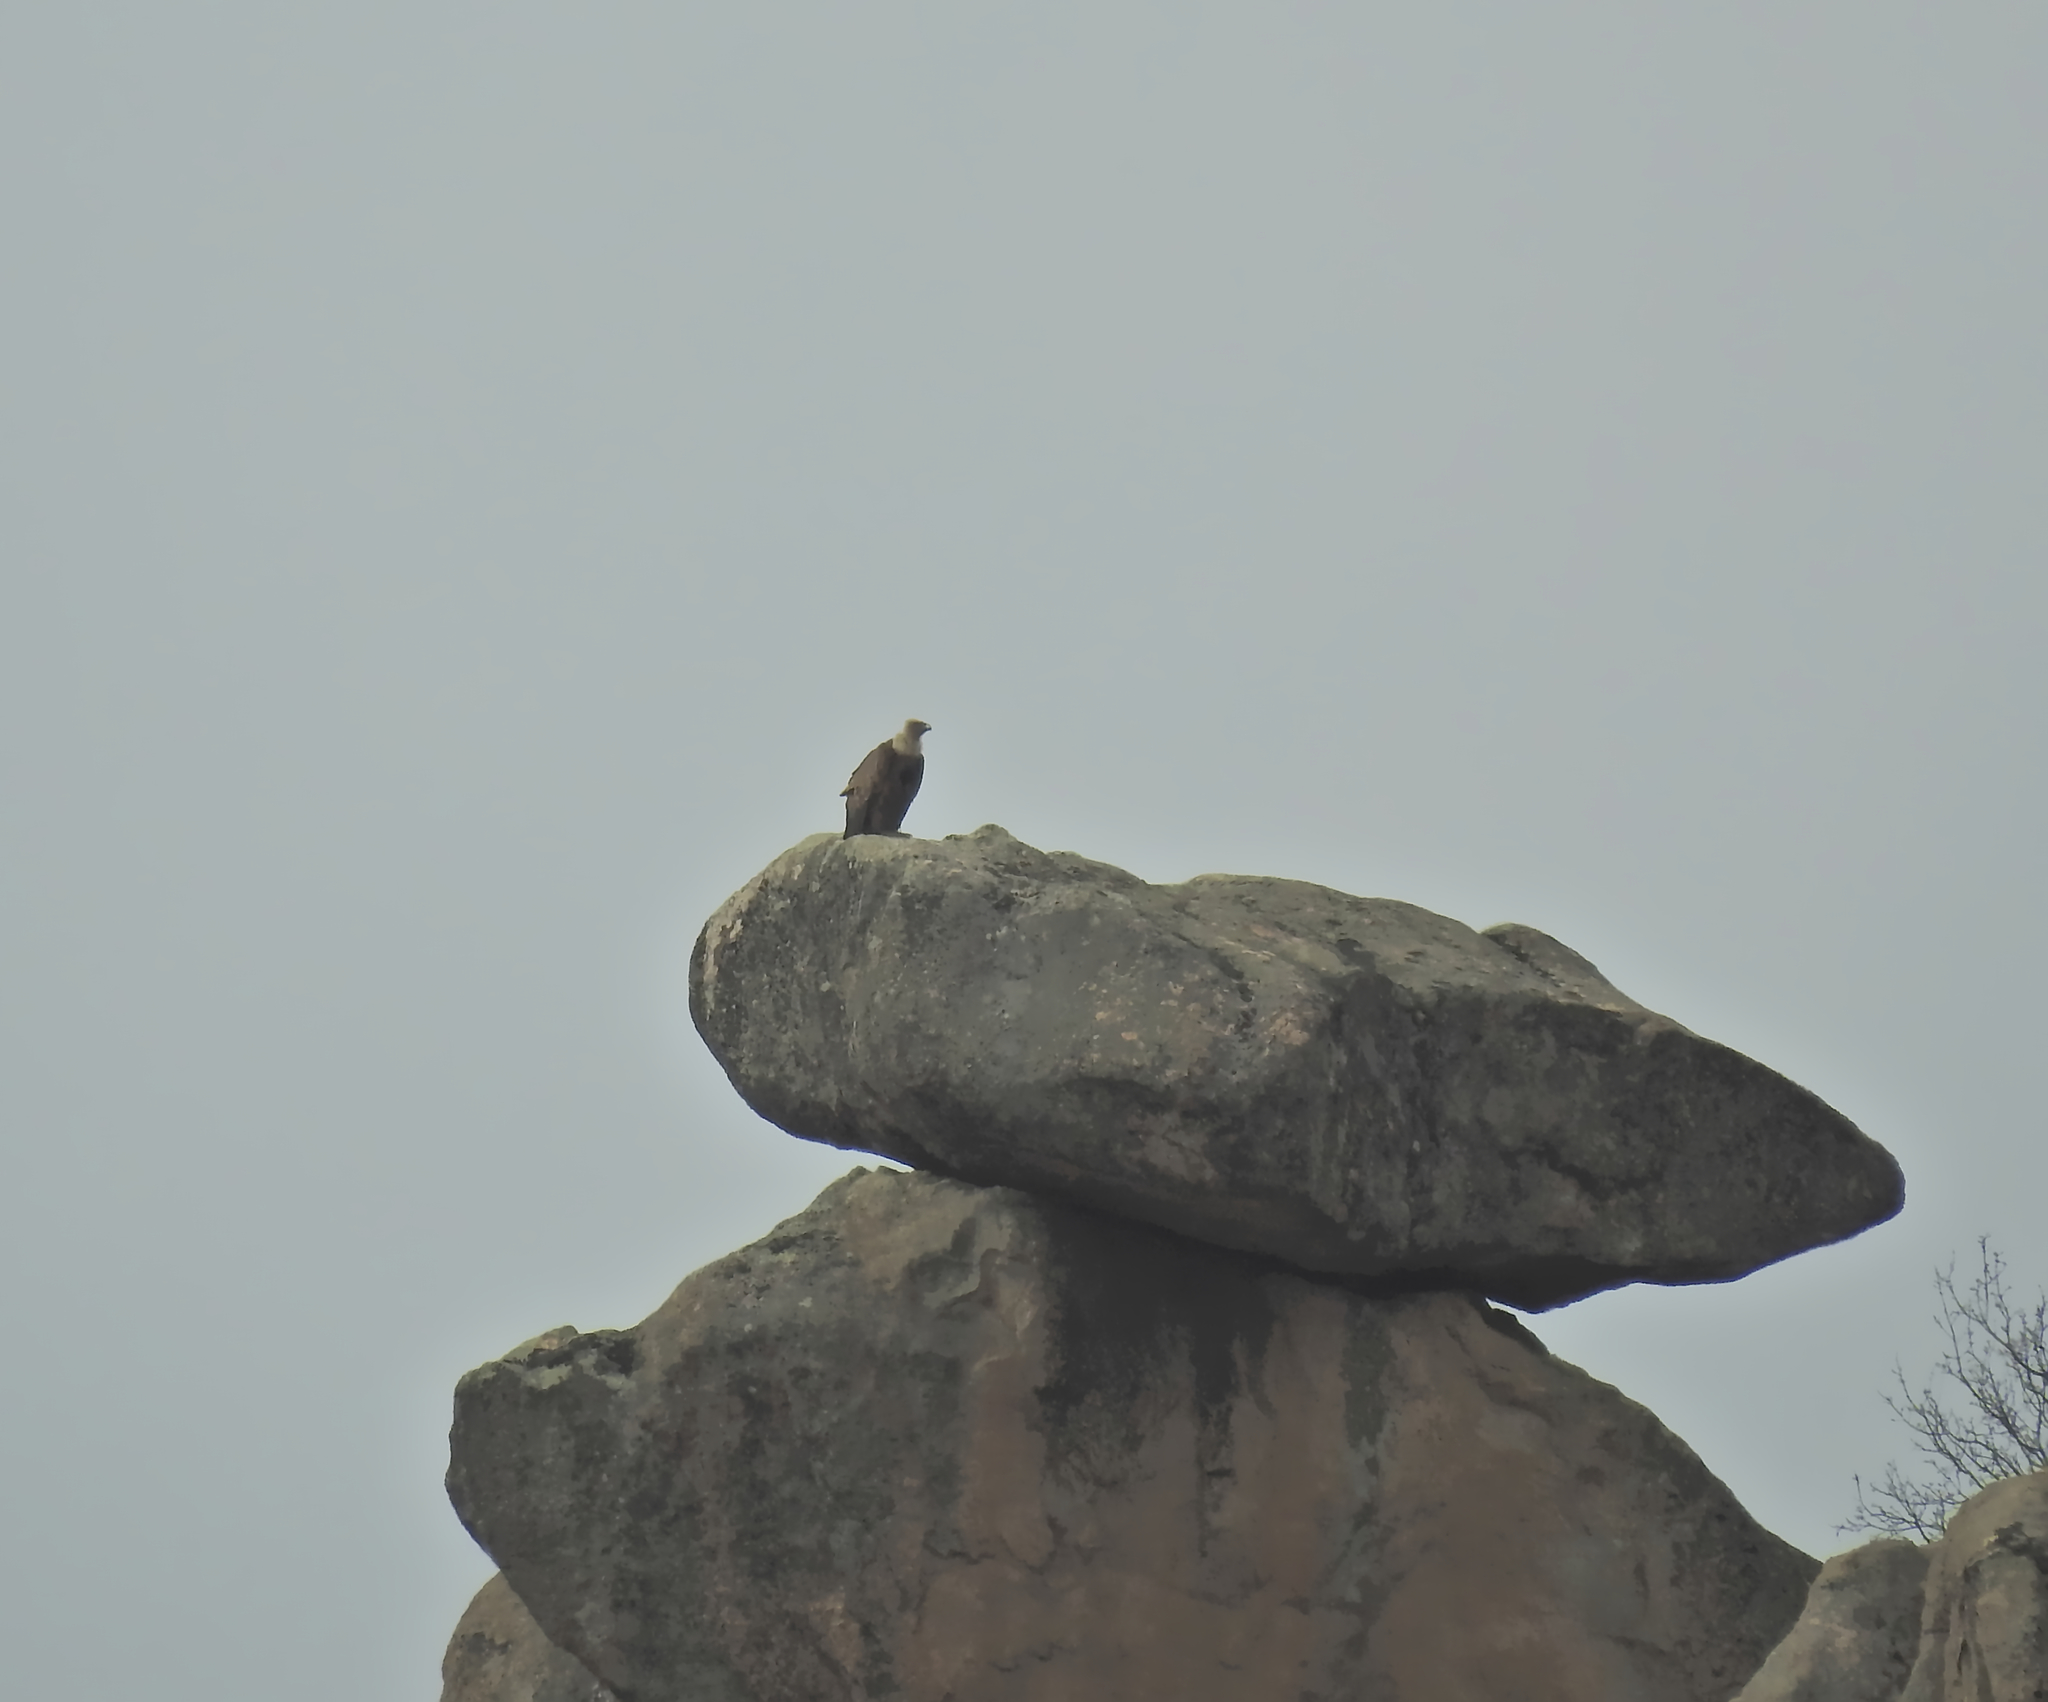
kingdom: Animalia
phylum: Chordata
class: Aves
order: Accipitriformes
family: Accipitridae
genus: Gyps
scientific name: Gyps fulvus
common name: Griffon vulture
